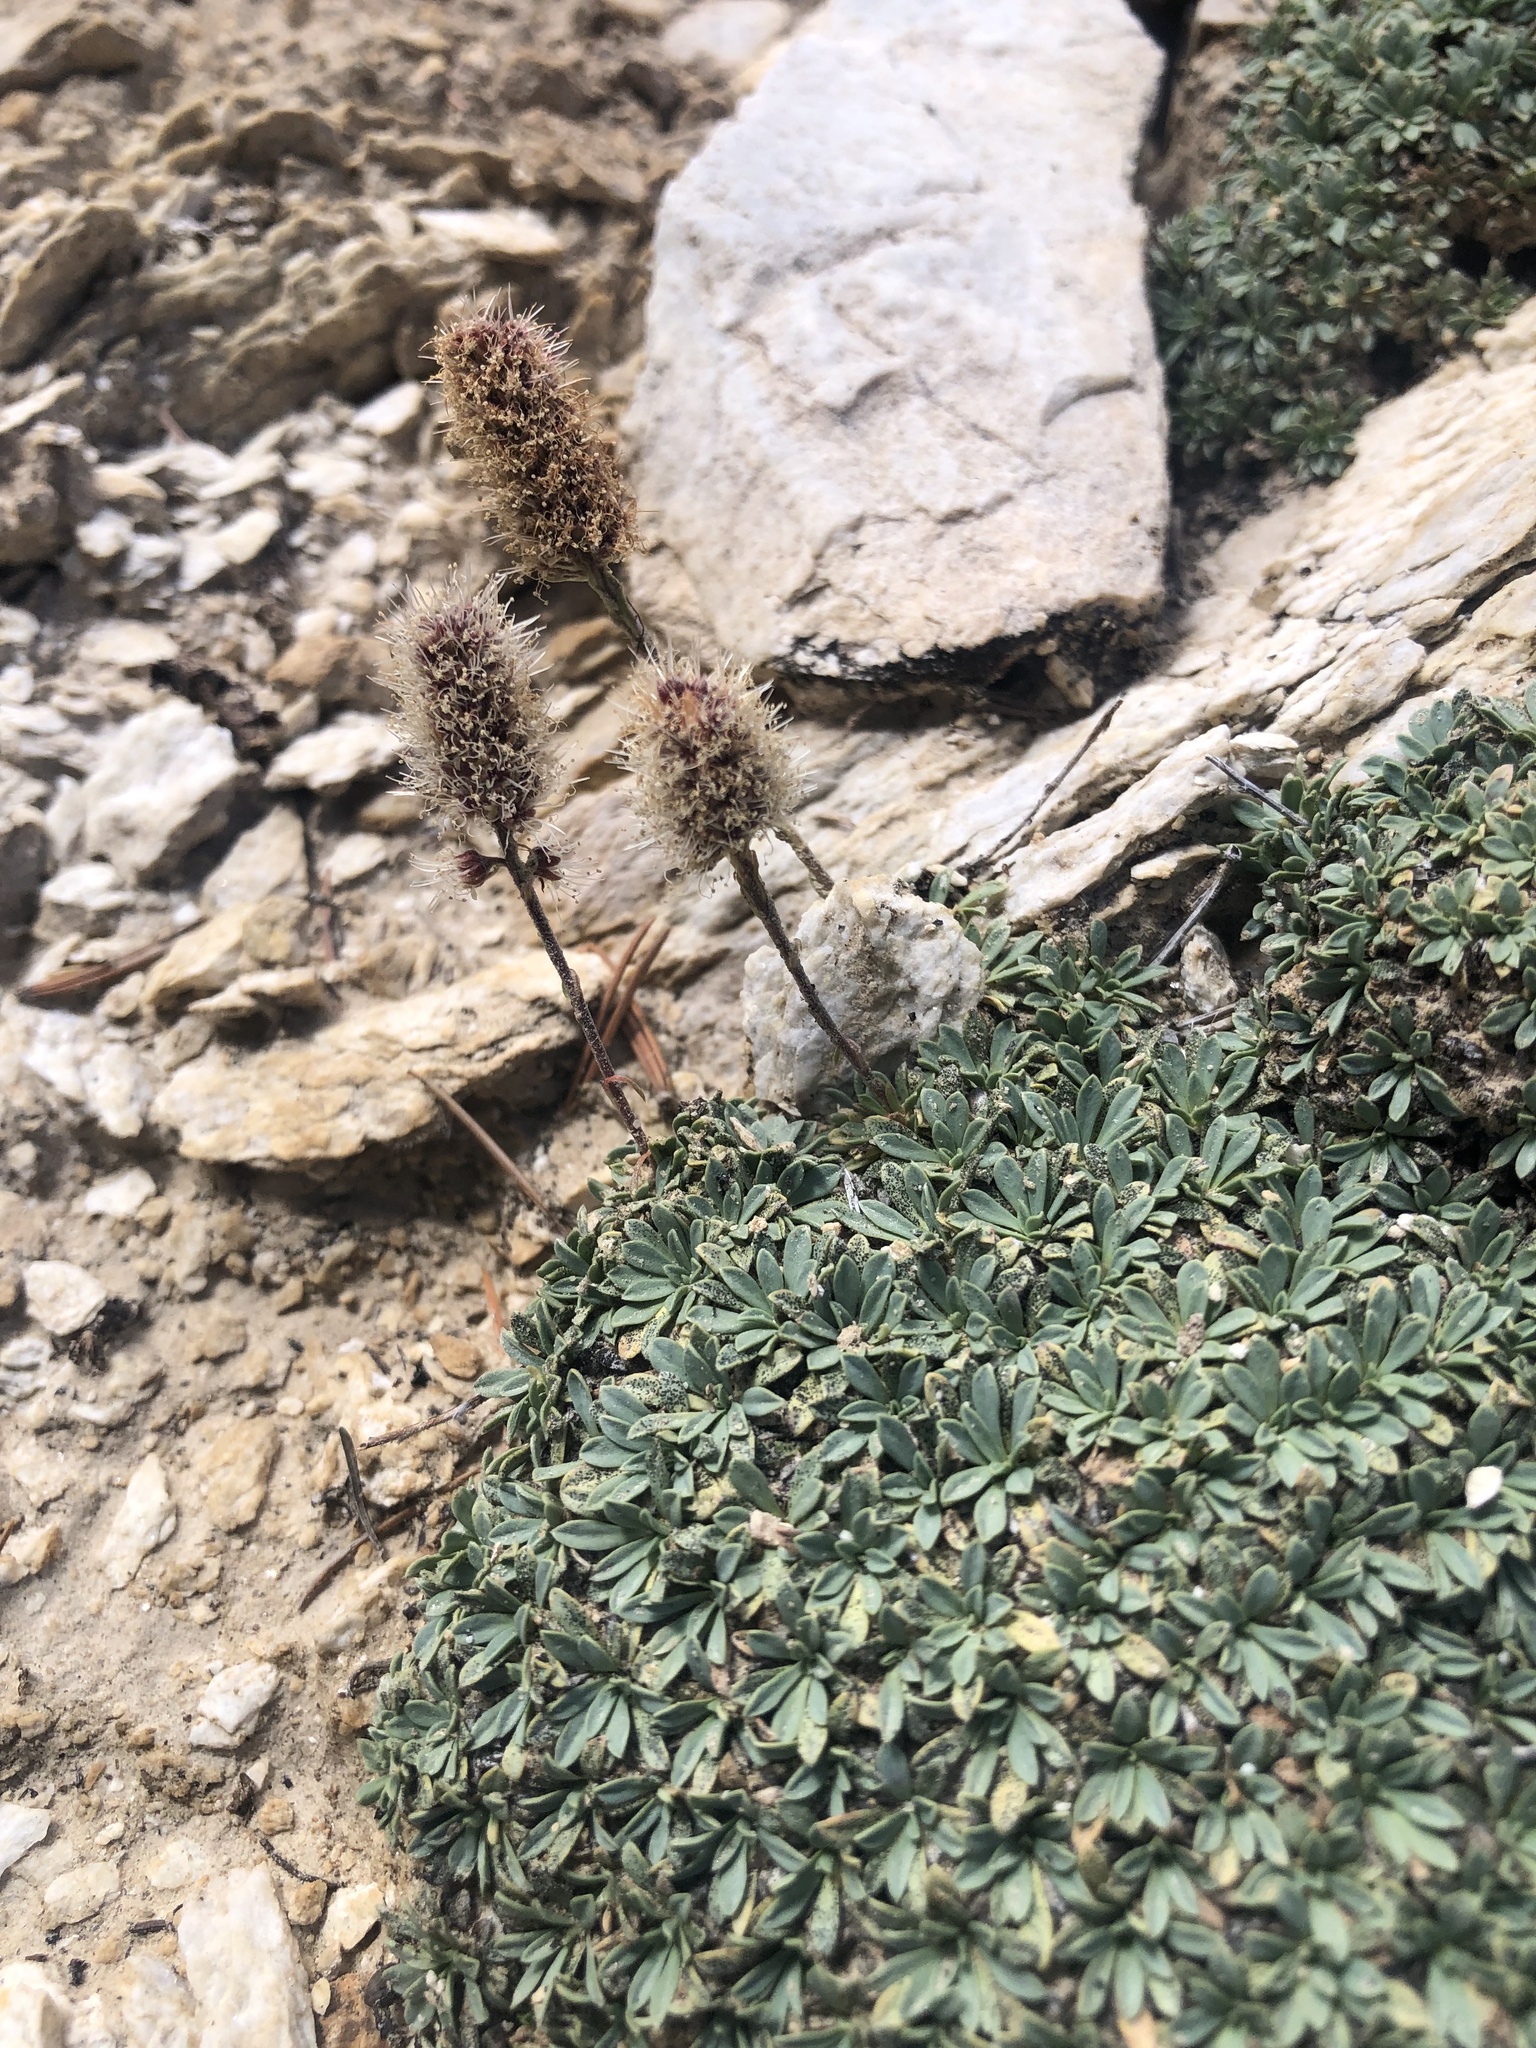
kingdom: Plantae
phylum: Tracheophyta
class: Magnoliopsida
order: Rosales
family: Rosaceae
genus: Petrophytum
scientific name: Petrophytum caespitosum
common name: Mat rockspirea
